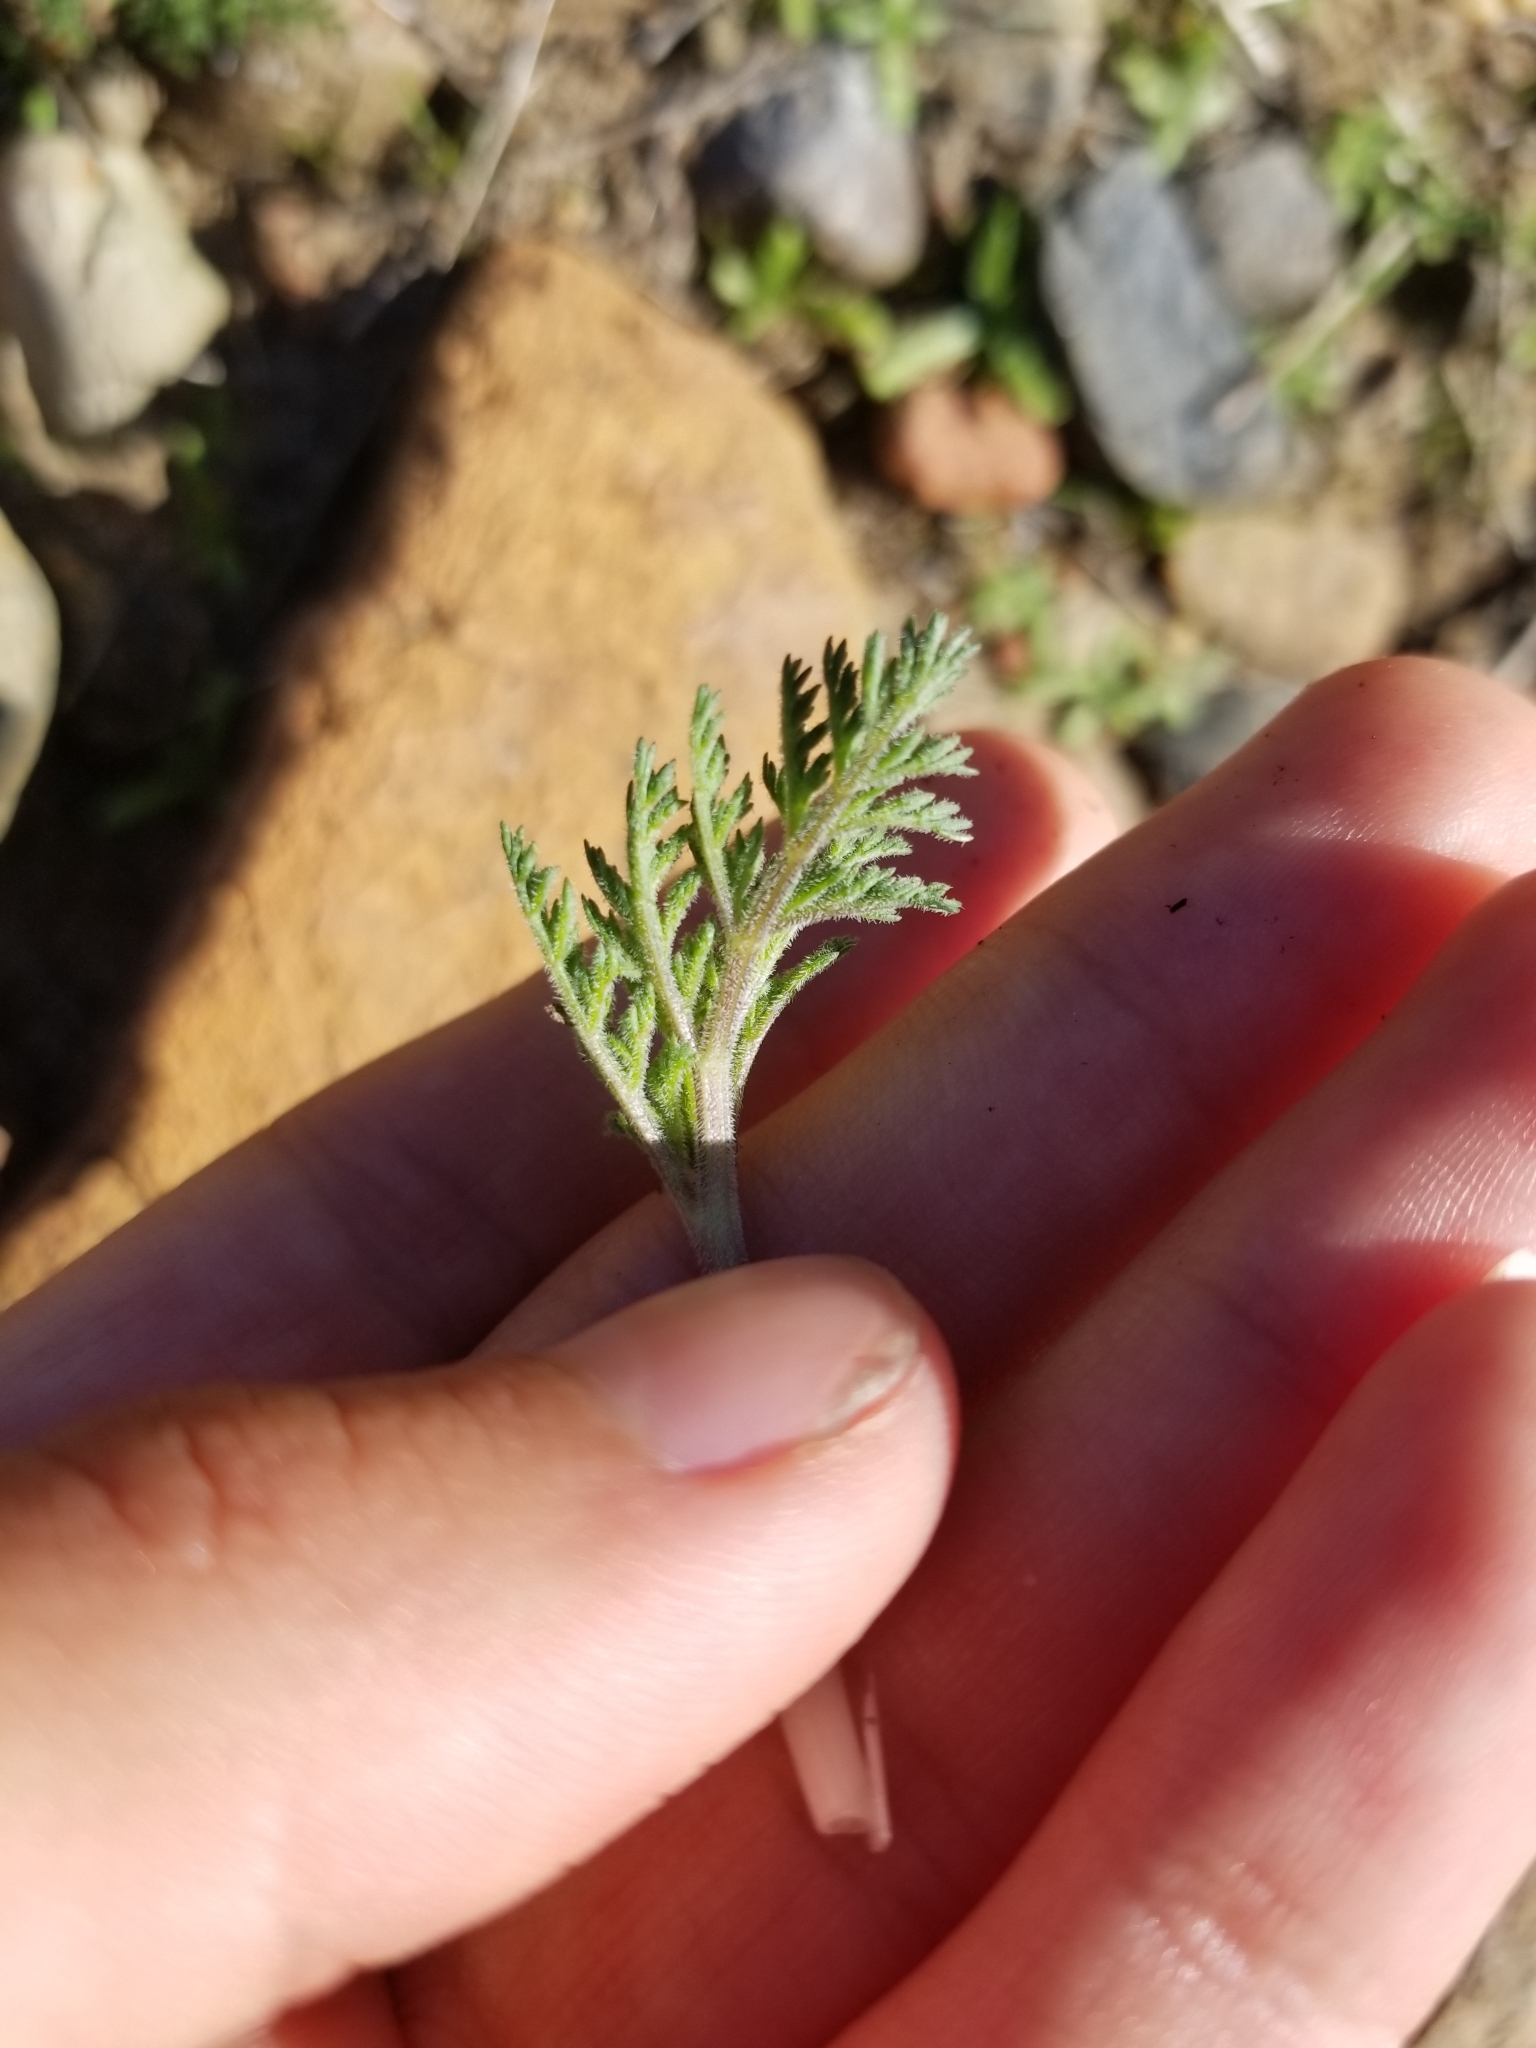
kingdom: Plantae
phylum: Tracheophyta
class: Magnoliopsida
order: Apiales
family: Apiaceae
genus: Lomatium
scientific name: Lomatium dasycarpum
